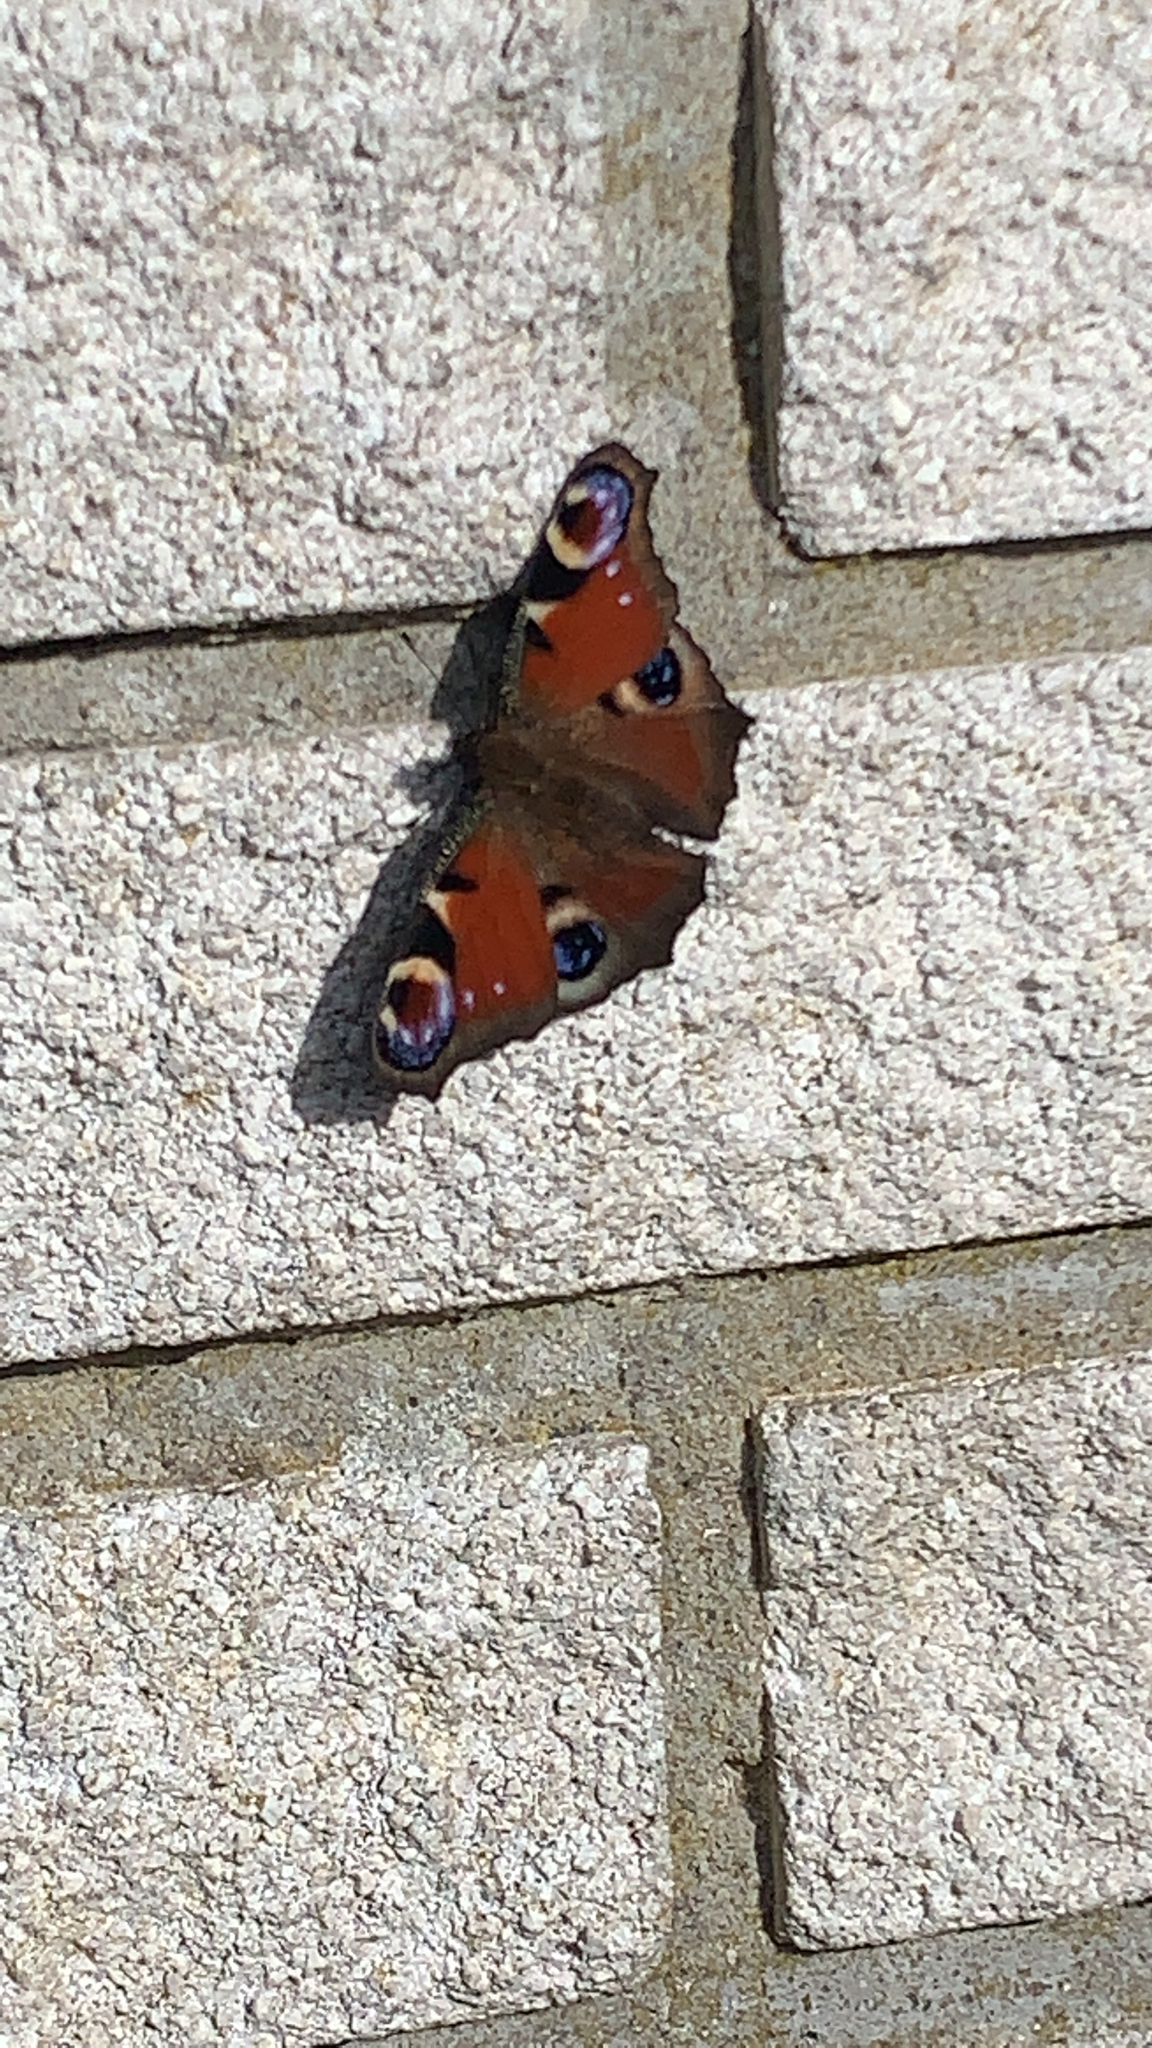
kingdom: Animalia
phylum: Arthropoda
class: Insecta
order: Lepidoptera
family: Nymphalidae
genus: Aglais
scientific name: Aglais io
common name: Peacock
